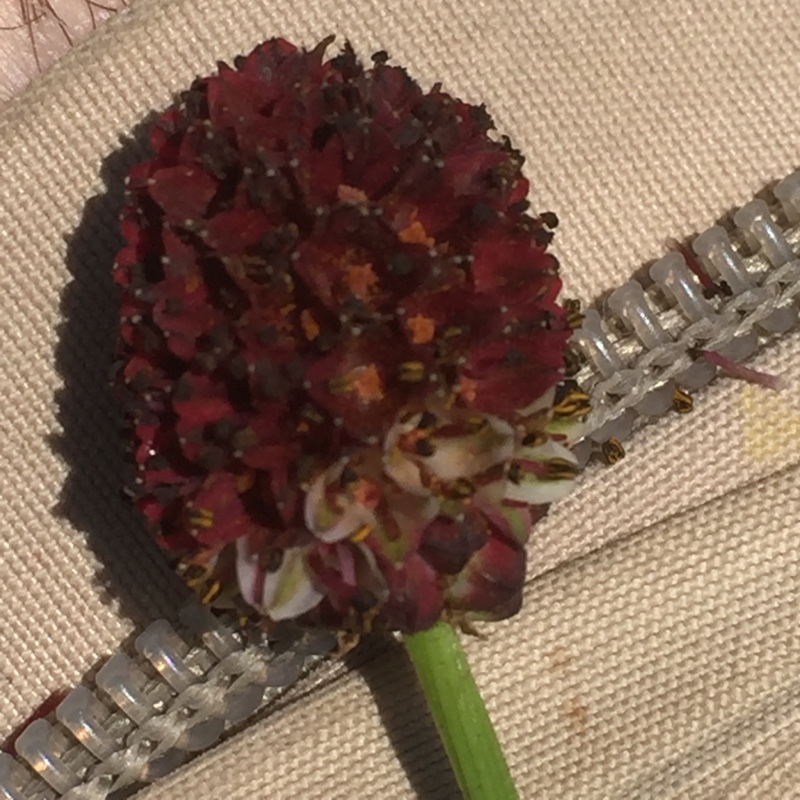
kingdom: Plantae
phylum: Tracheophyta
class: Magnoliopsida
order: Rosales
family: Rosaceae
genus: Sanguisorba
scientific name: Sanguisorba officinalis
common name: Great burnet
